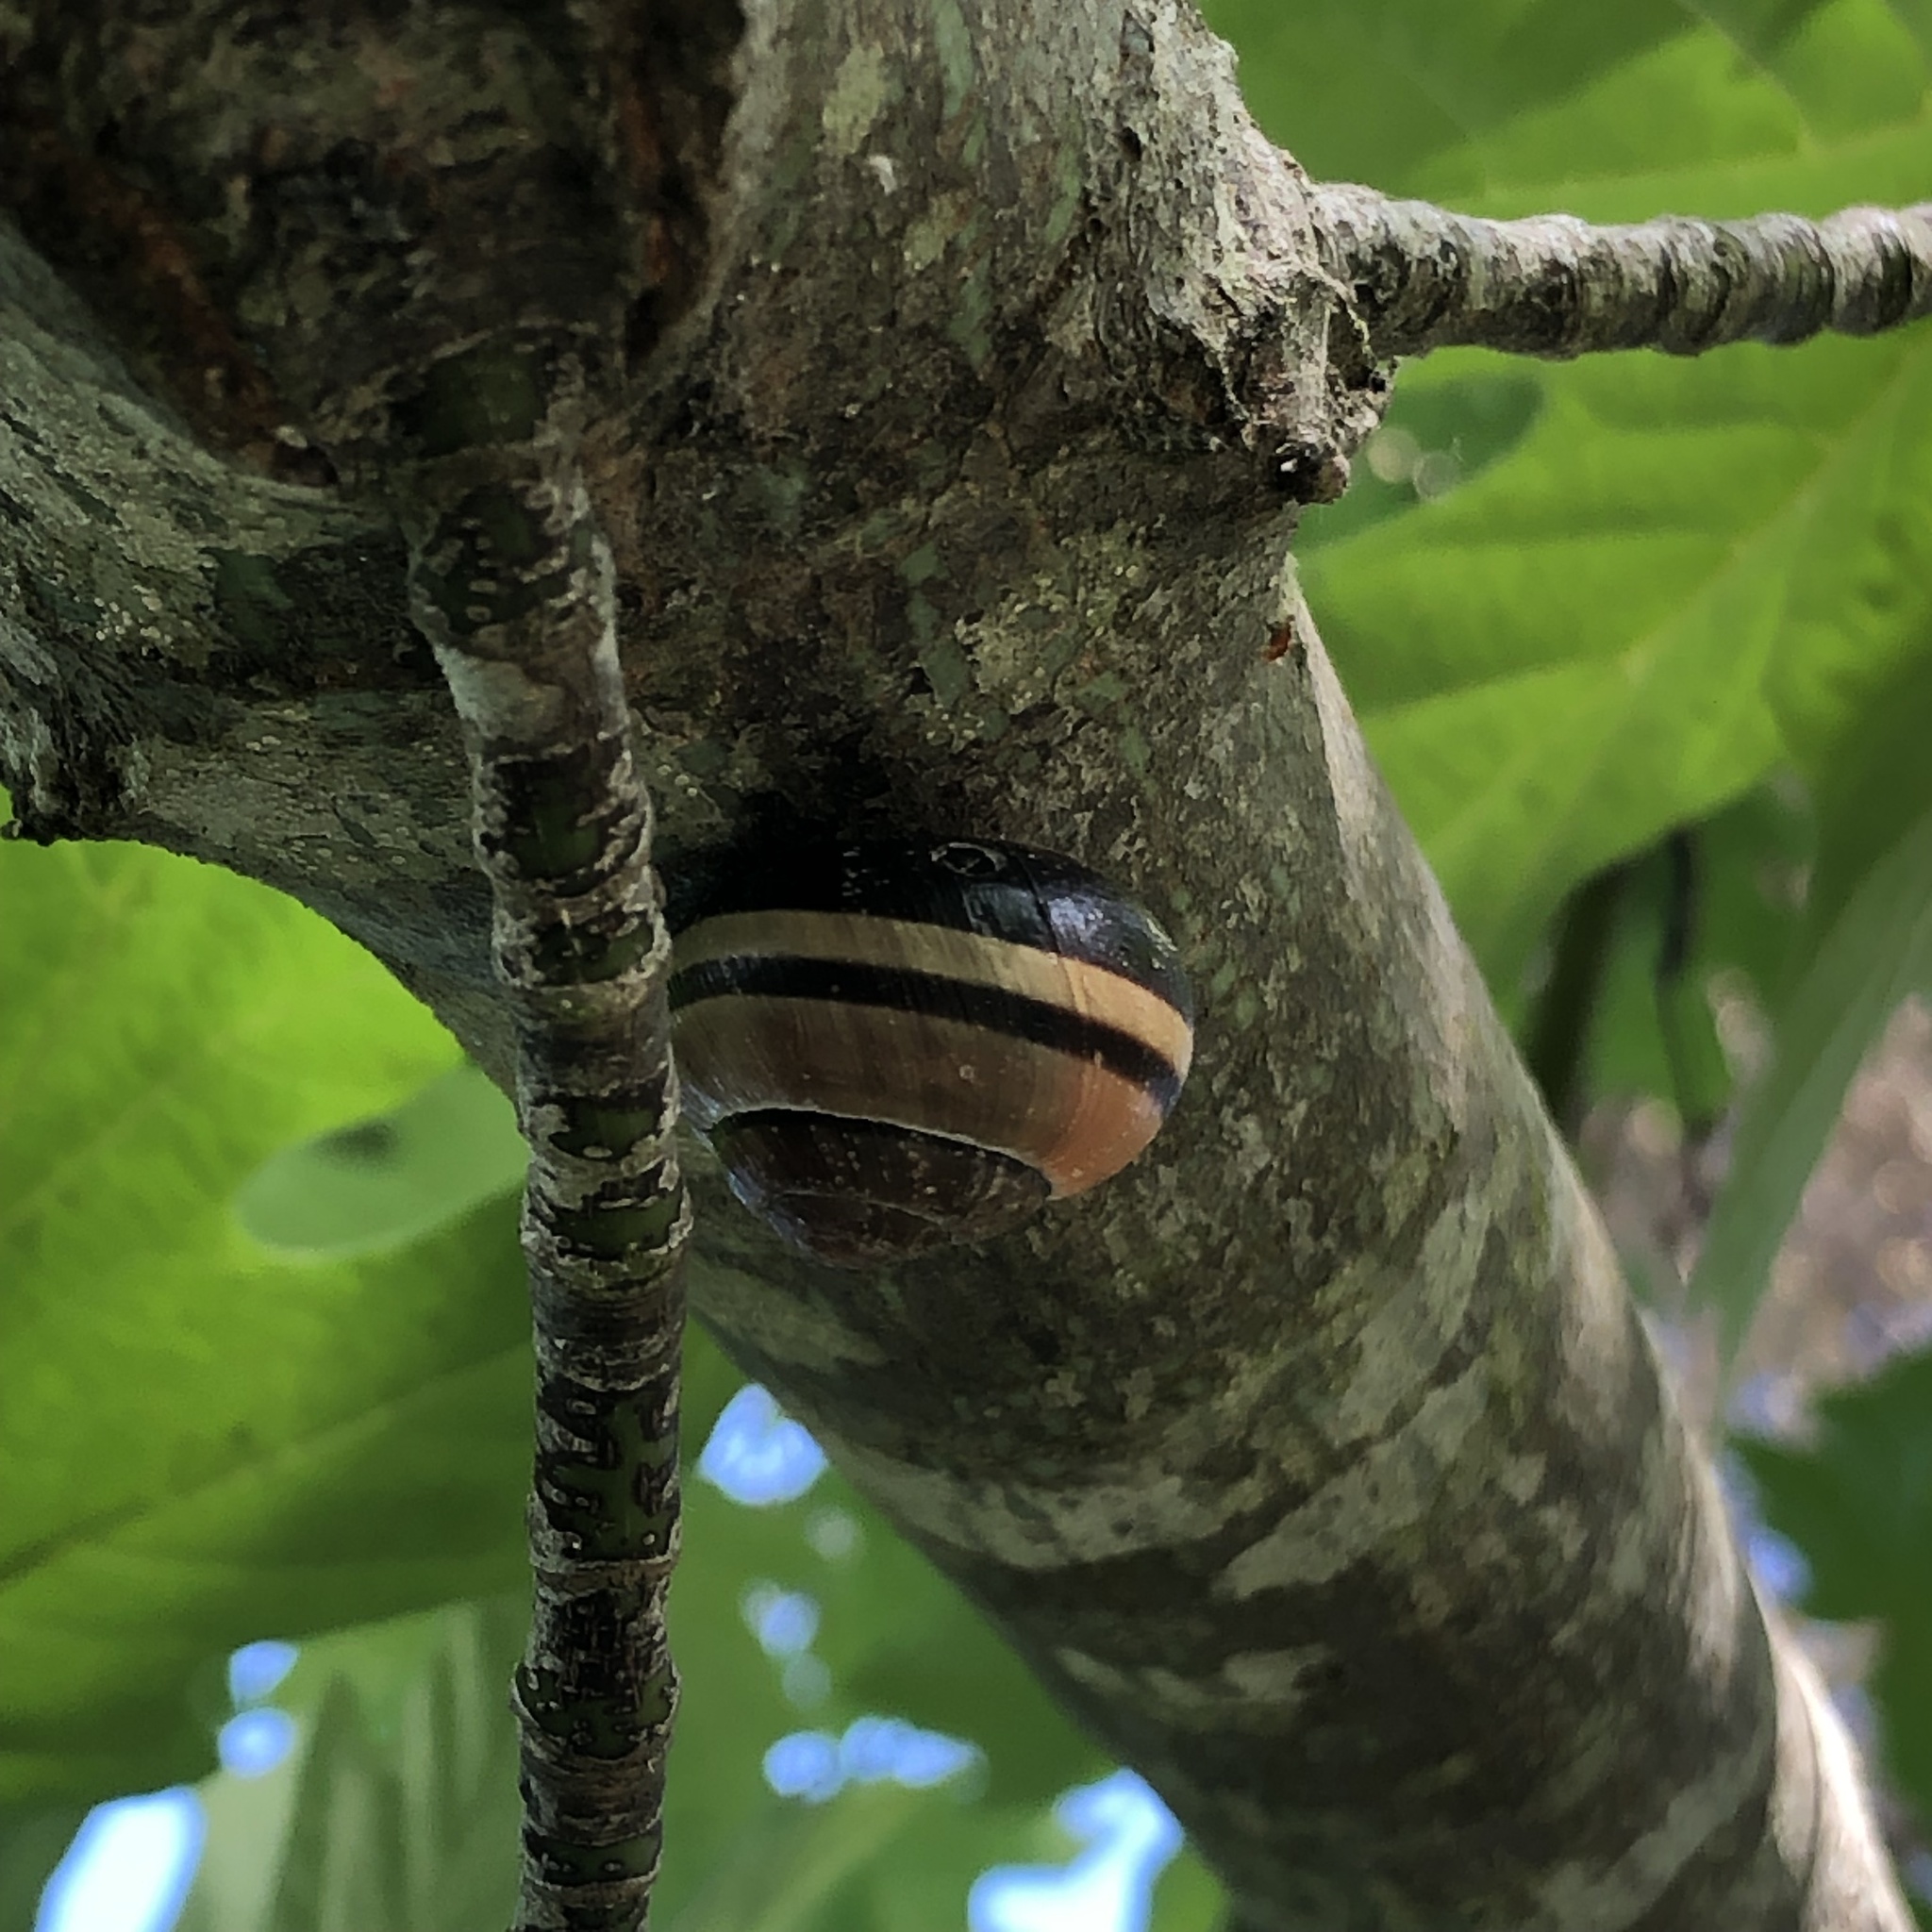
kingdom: Animalia
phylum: Mollusca
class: Gastropoda
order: Stylommatophora
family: Helicidae
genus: Cepaea
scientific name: Cepaea nemoralis
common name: Grovesnail
